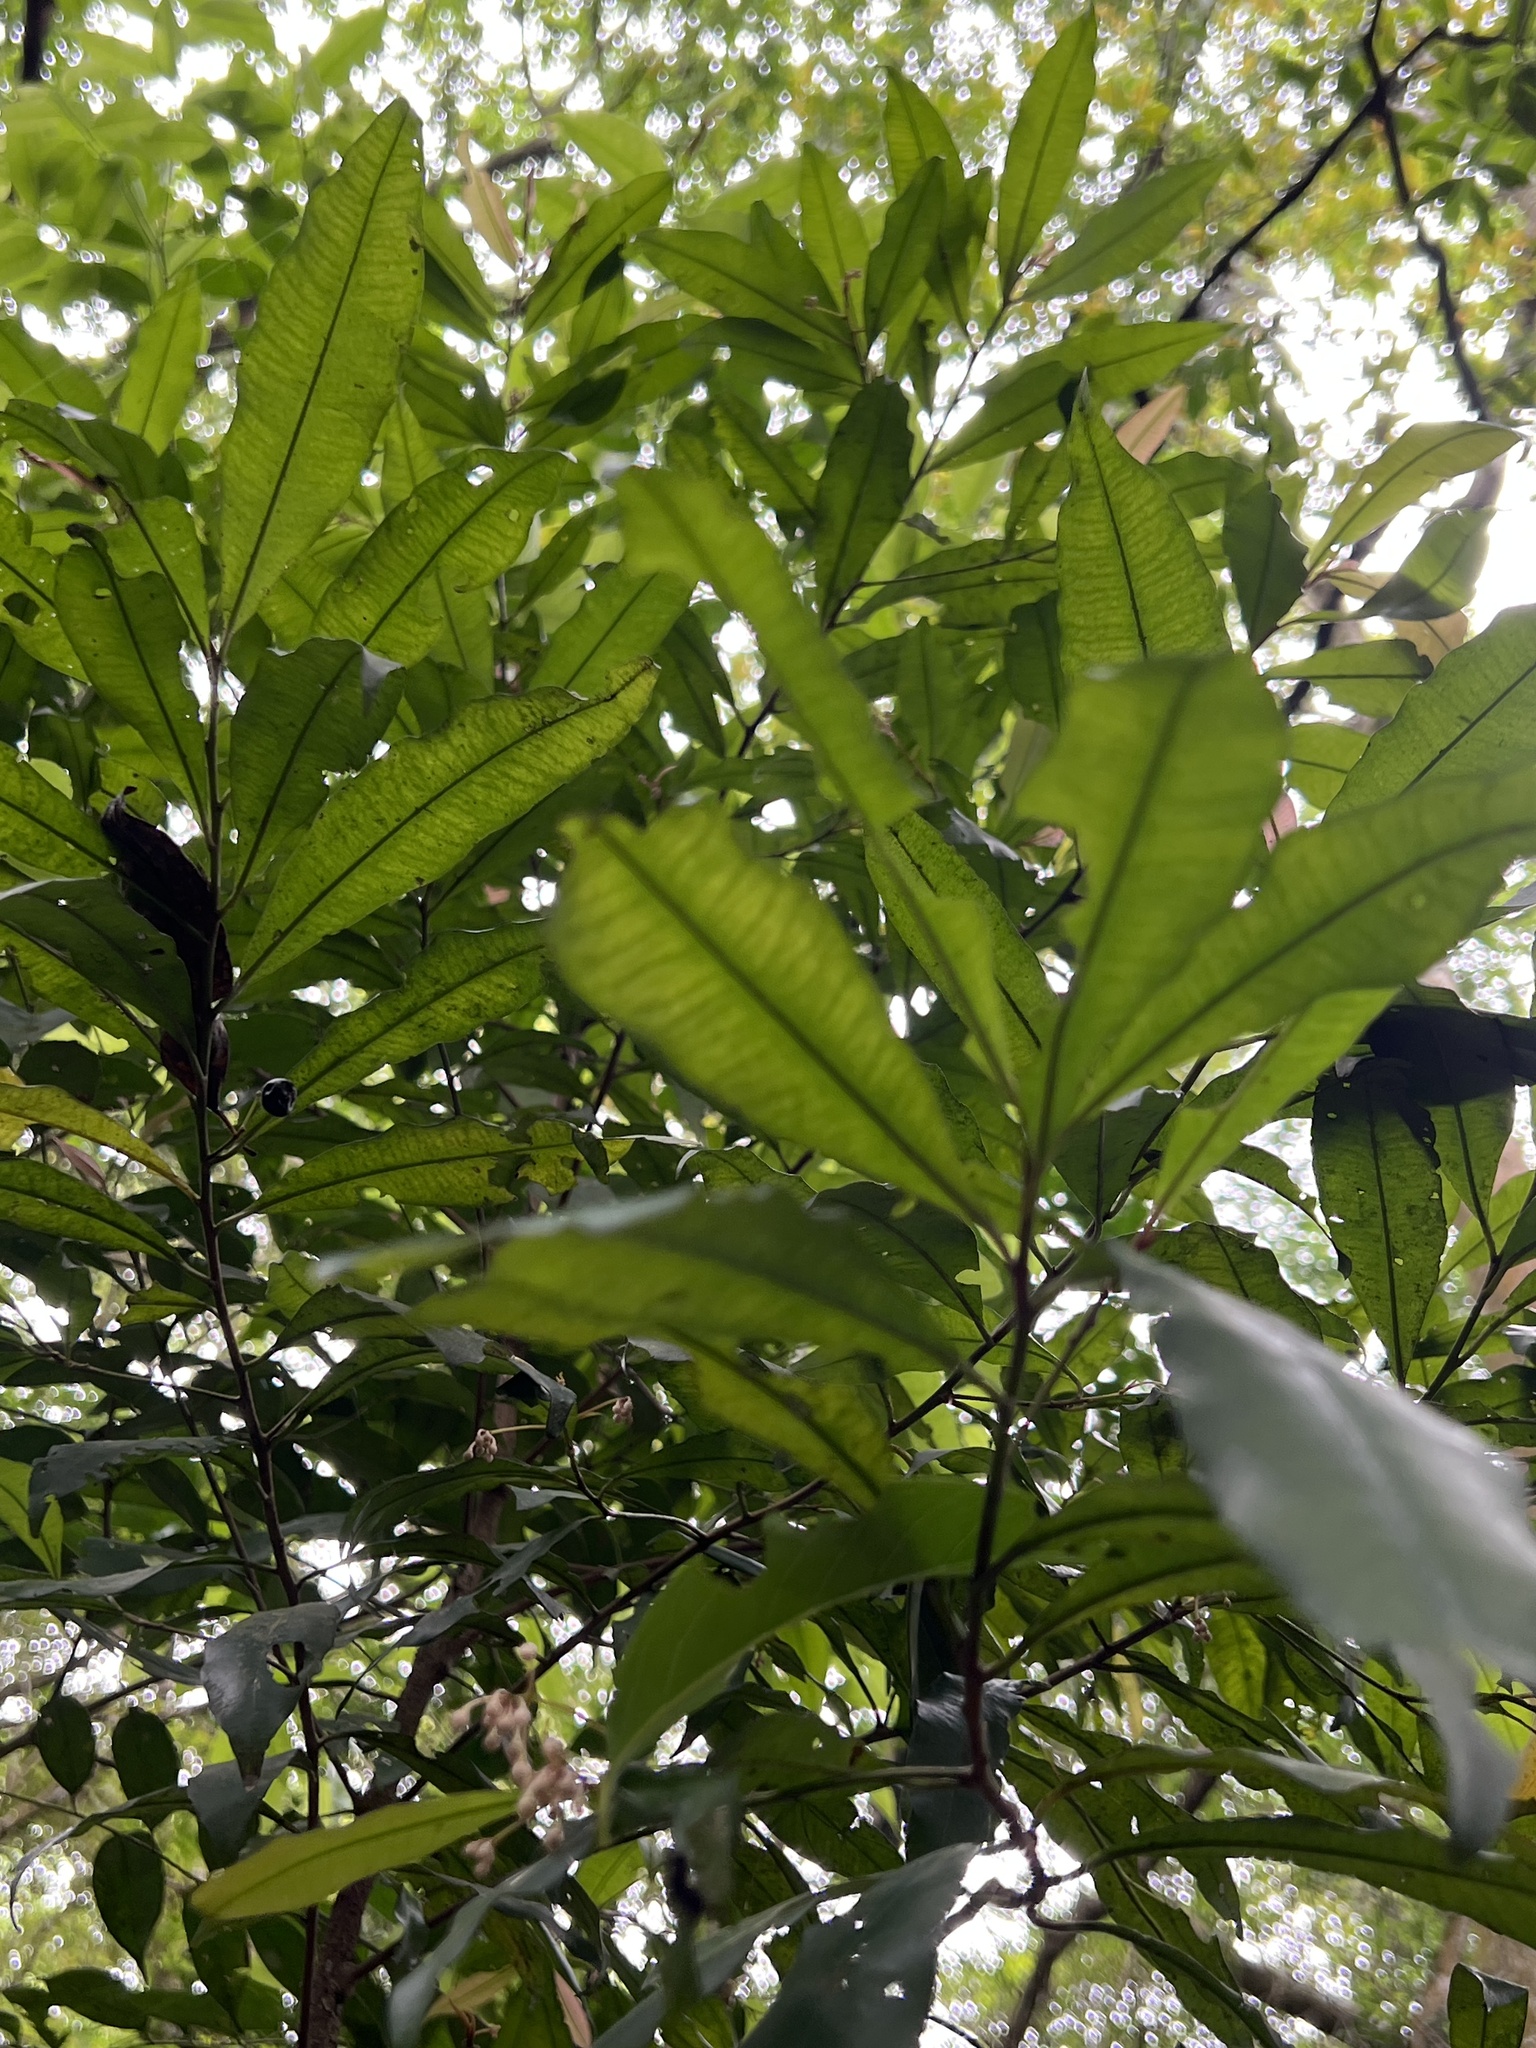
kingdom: Plantae
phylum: Tracheophyta
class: Magnoliopsida
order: Ericales
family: Primulaceae
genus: Ardisia
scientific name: Ardisia quinquegona
